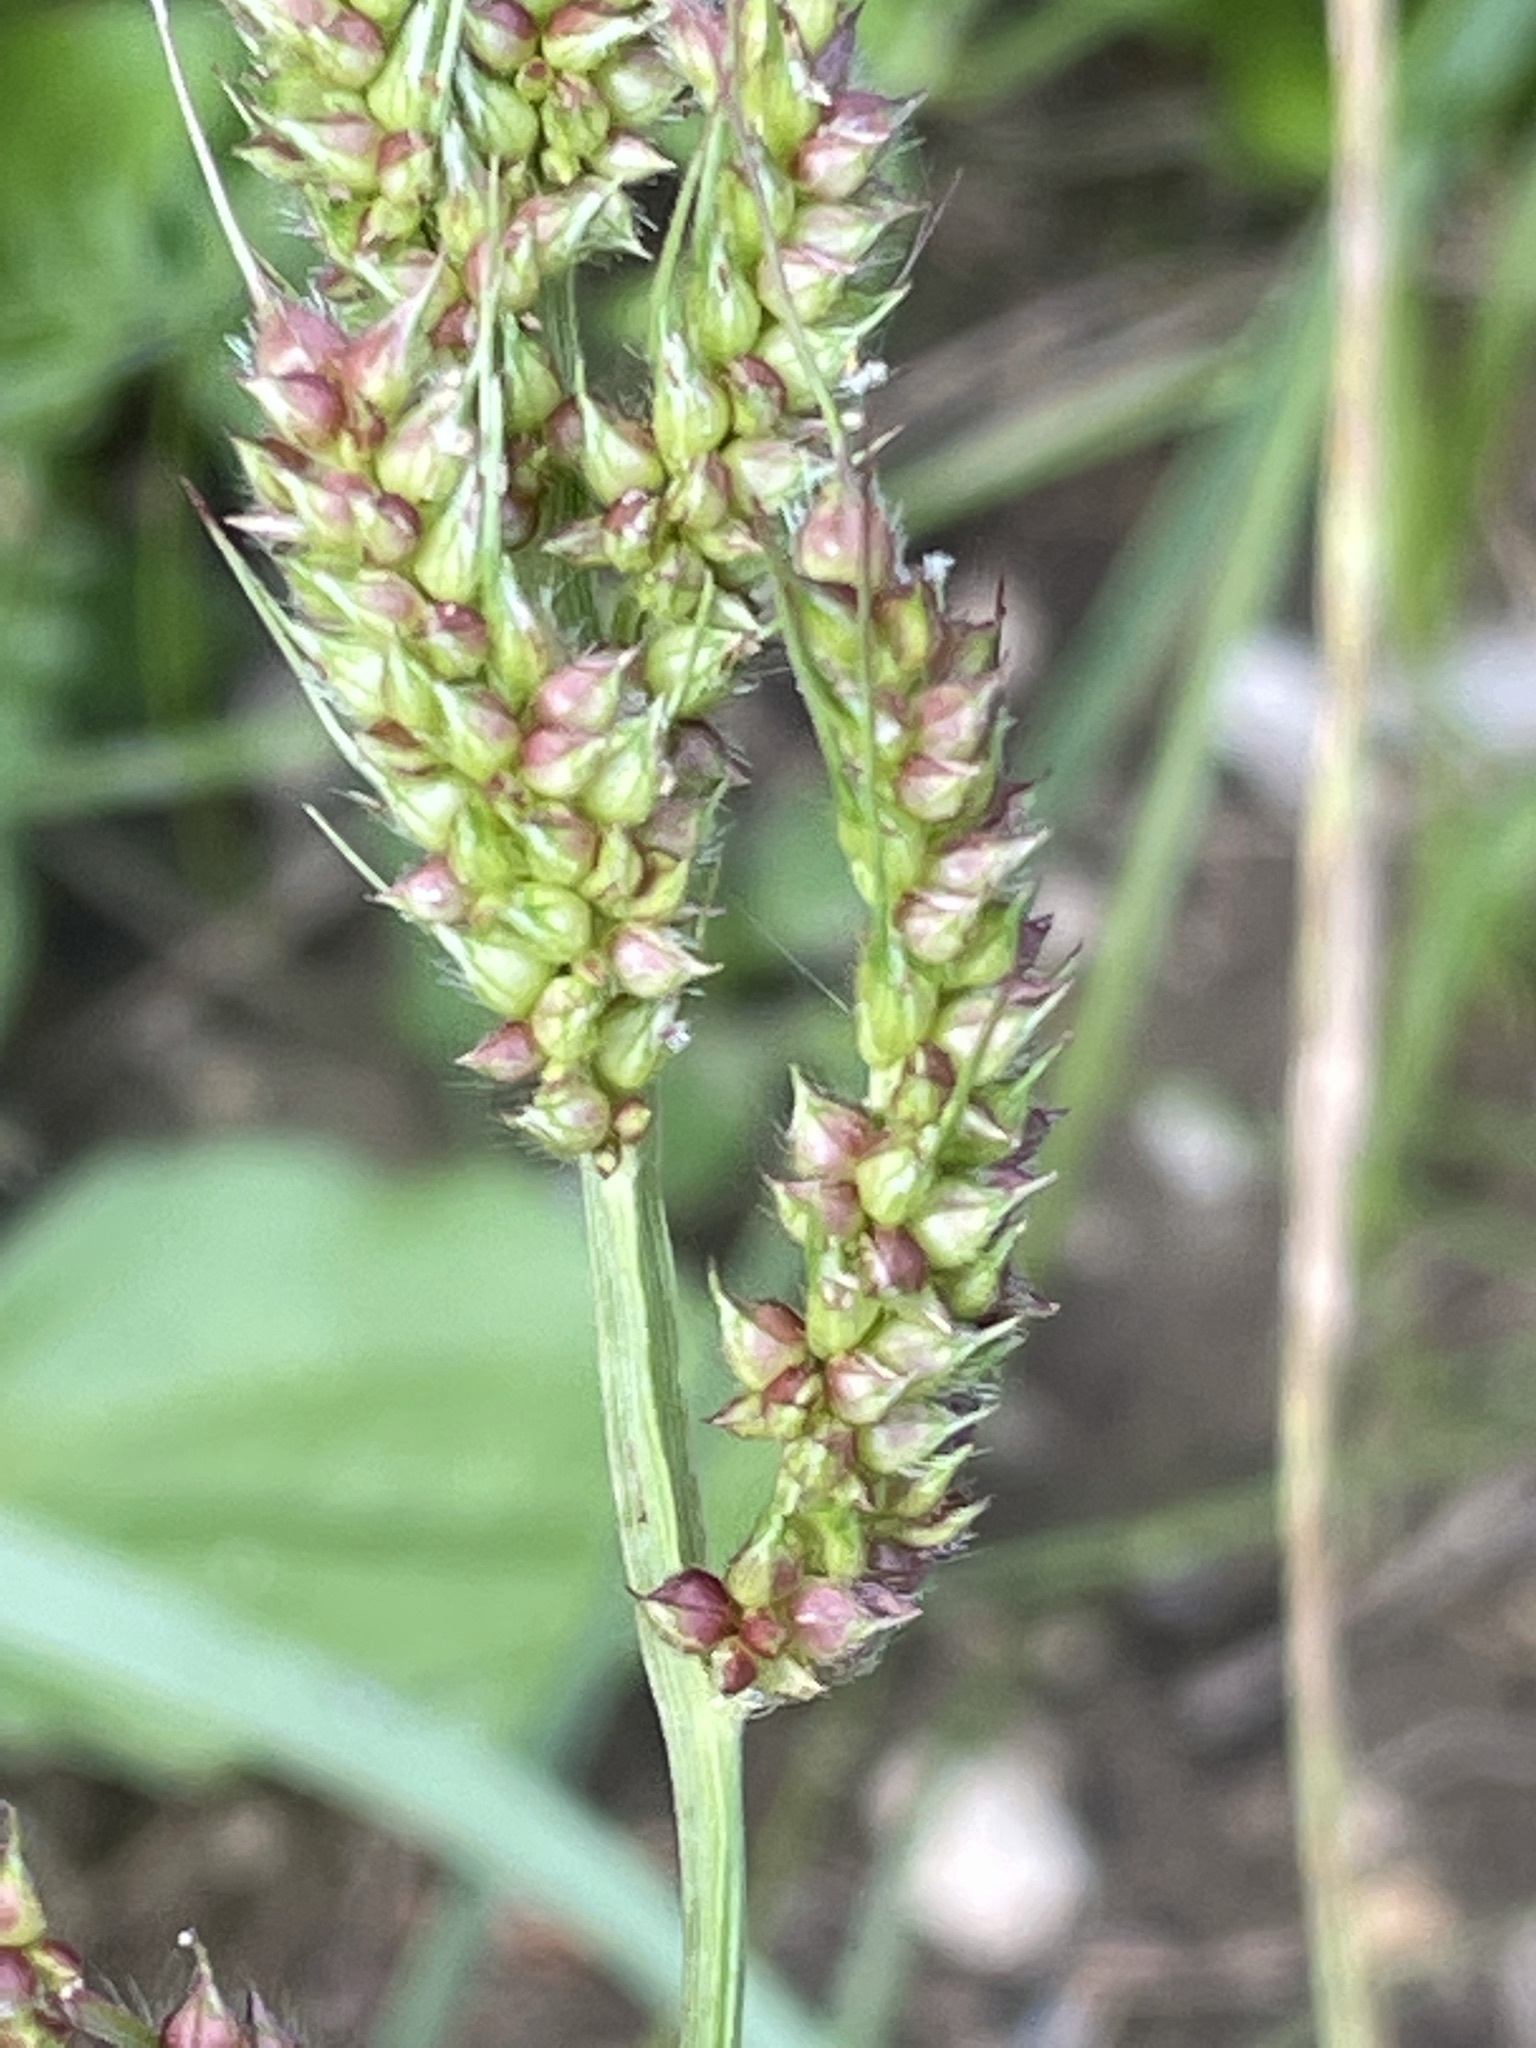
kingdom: Plantae
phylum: Tracheophyta
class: Liliopsida
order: Poales
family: Poaceae
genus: Echinochloa
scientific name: Echinochloa crus-galli
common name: Cockspur
